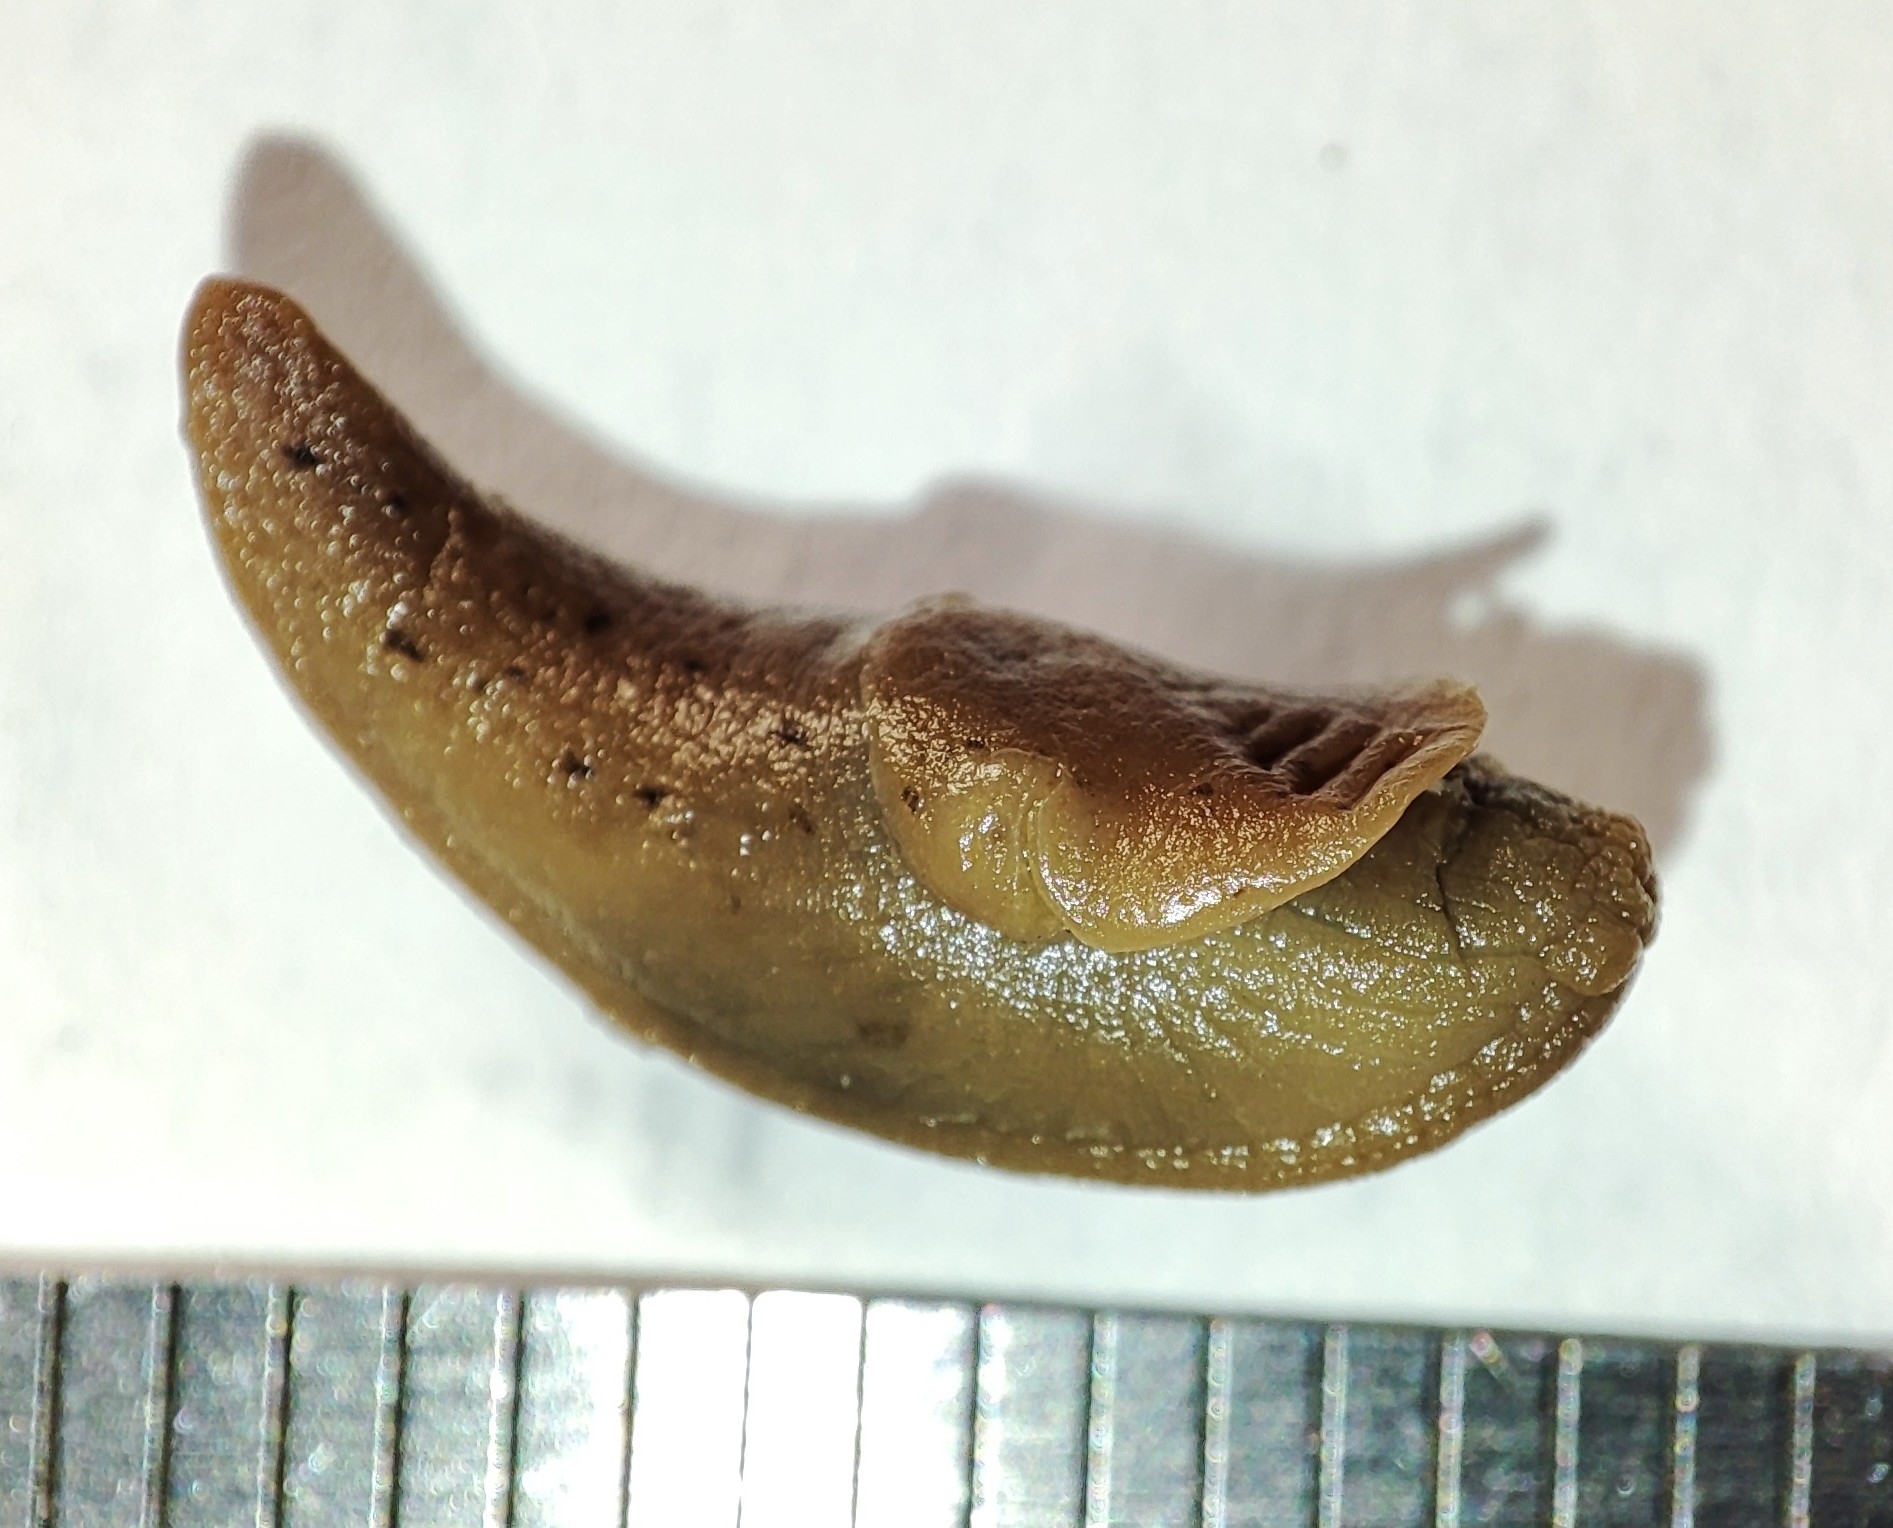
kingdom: Animalia
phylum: Mollusca
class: Gastropoda
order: Stylommatophora
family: Agriolimacidae
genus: Deroceras
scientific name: Deroceras rodnae
